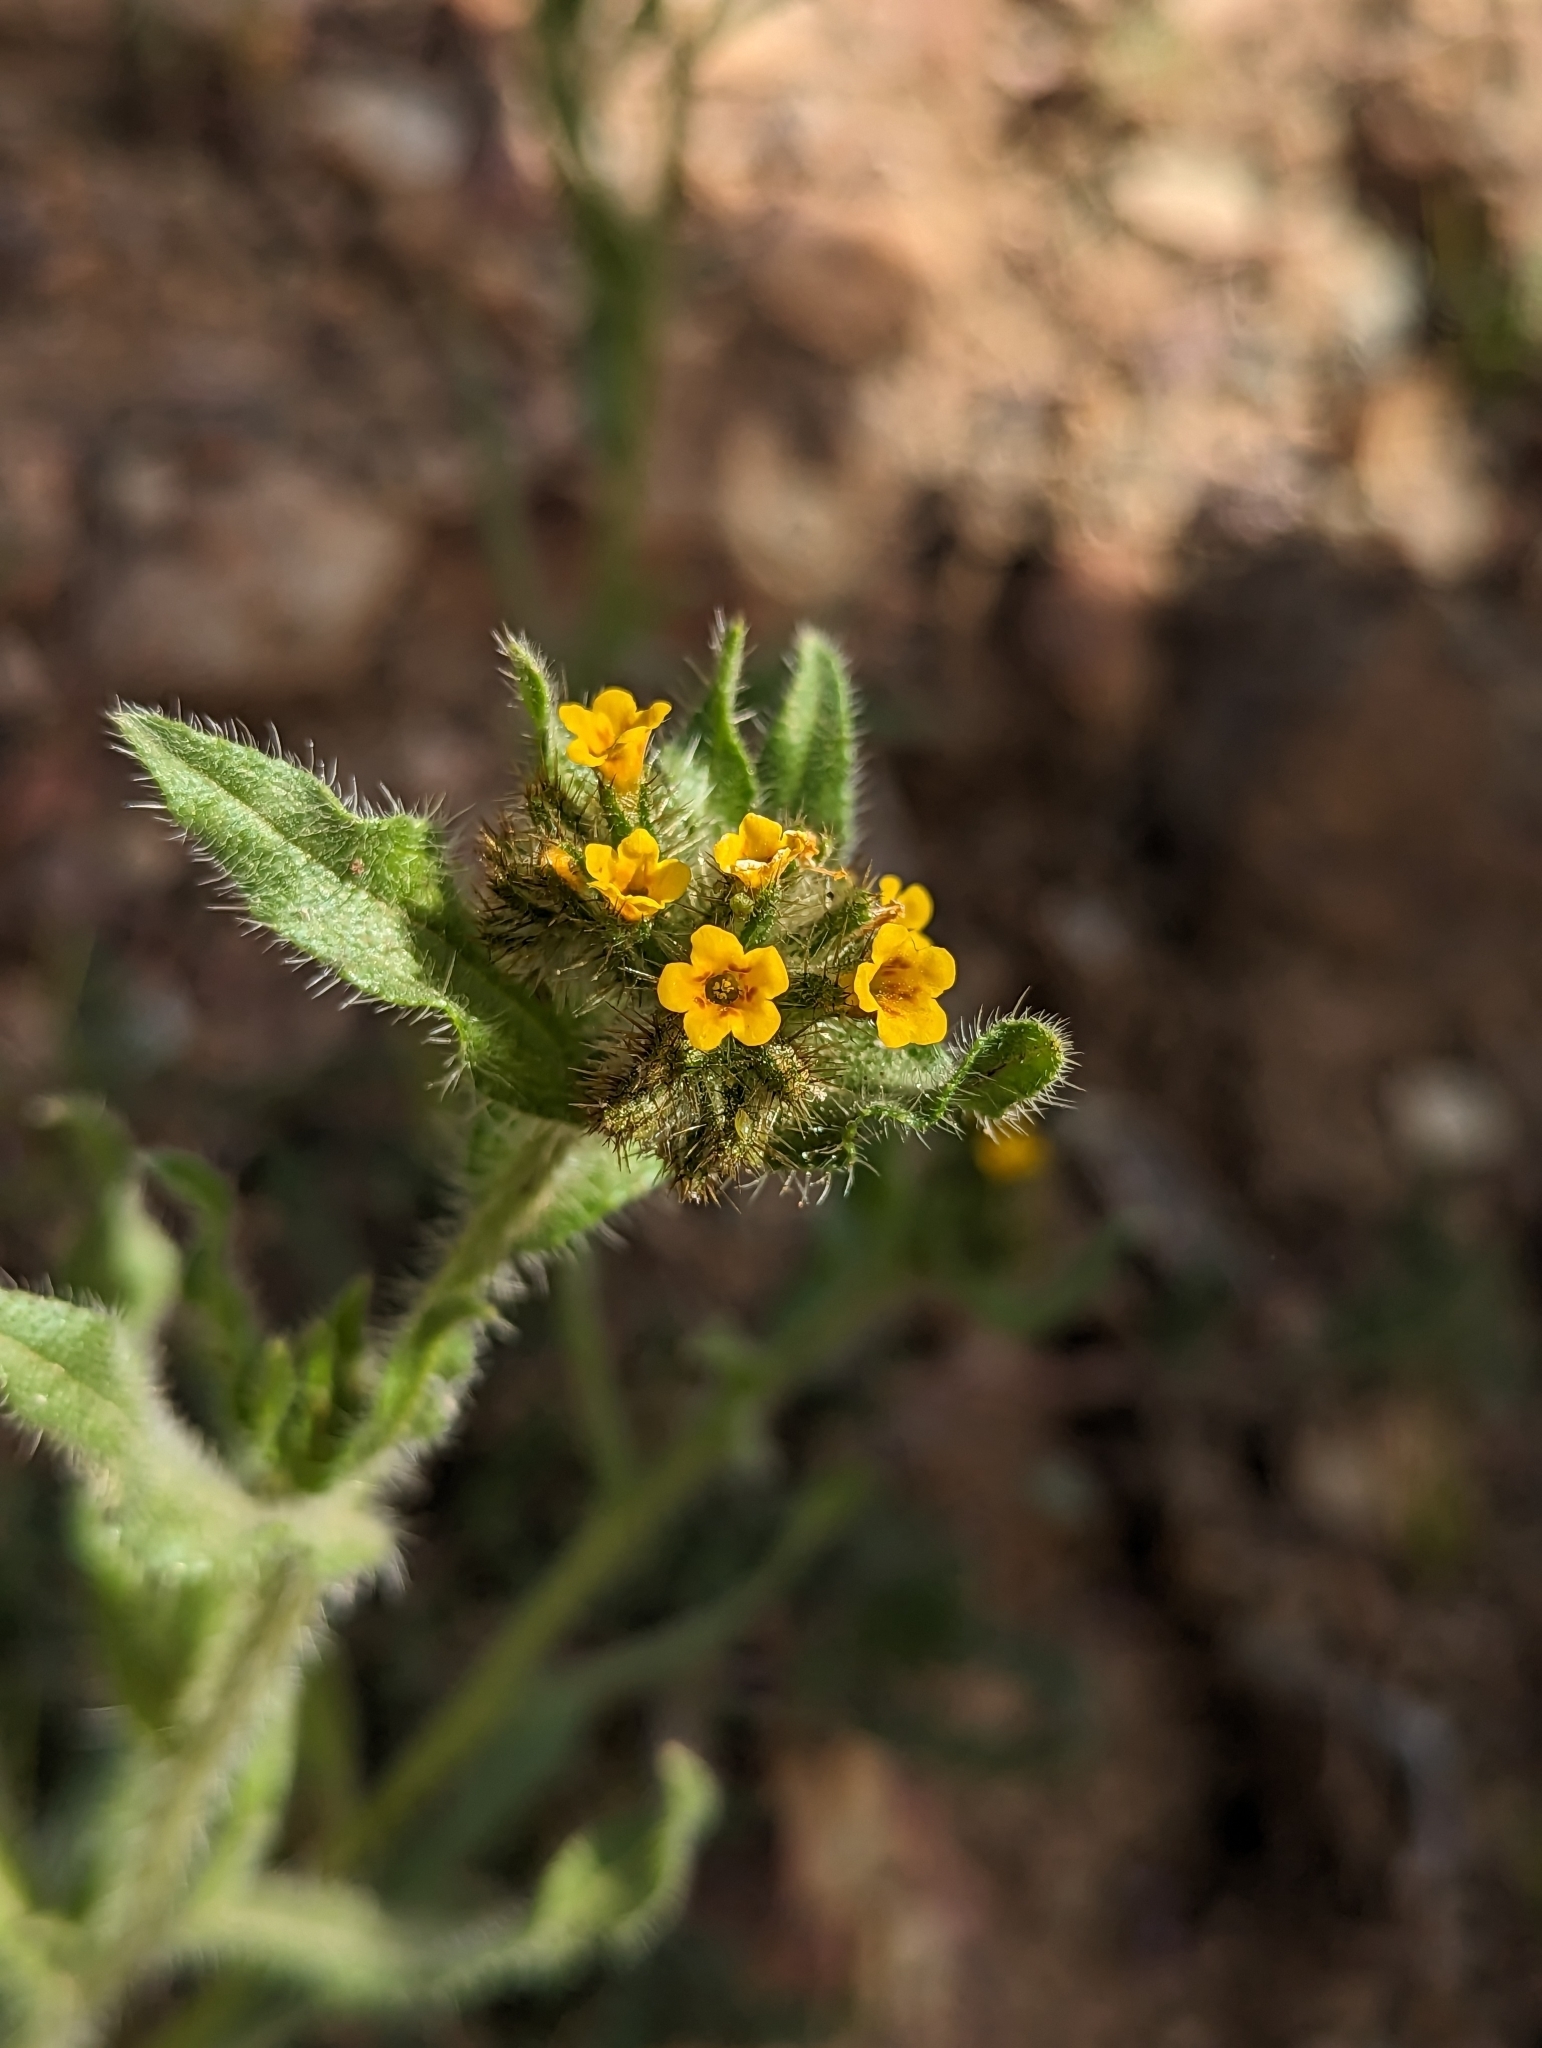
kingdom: Plantae
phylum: Tracheophyta
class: Magnoliopsida
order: Boraginales
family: Boraginaceae
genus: Amsinckia
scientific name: Amsinckia menziesii
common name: Menzies' fiddleneck
